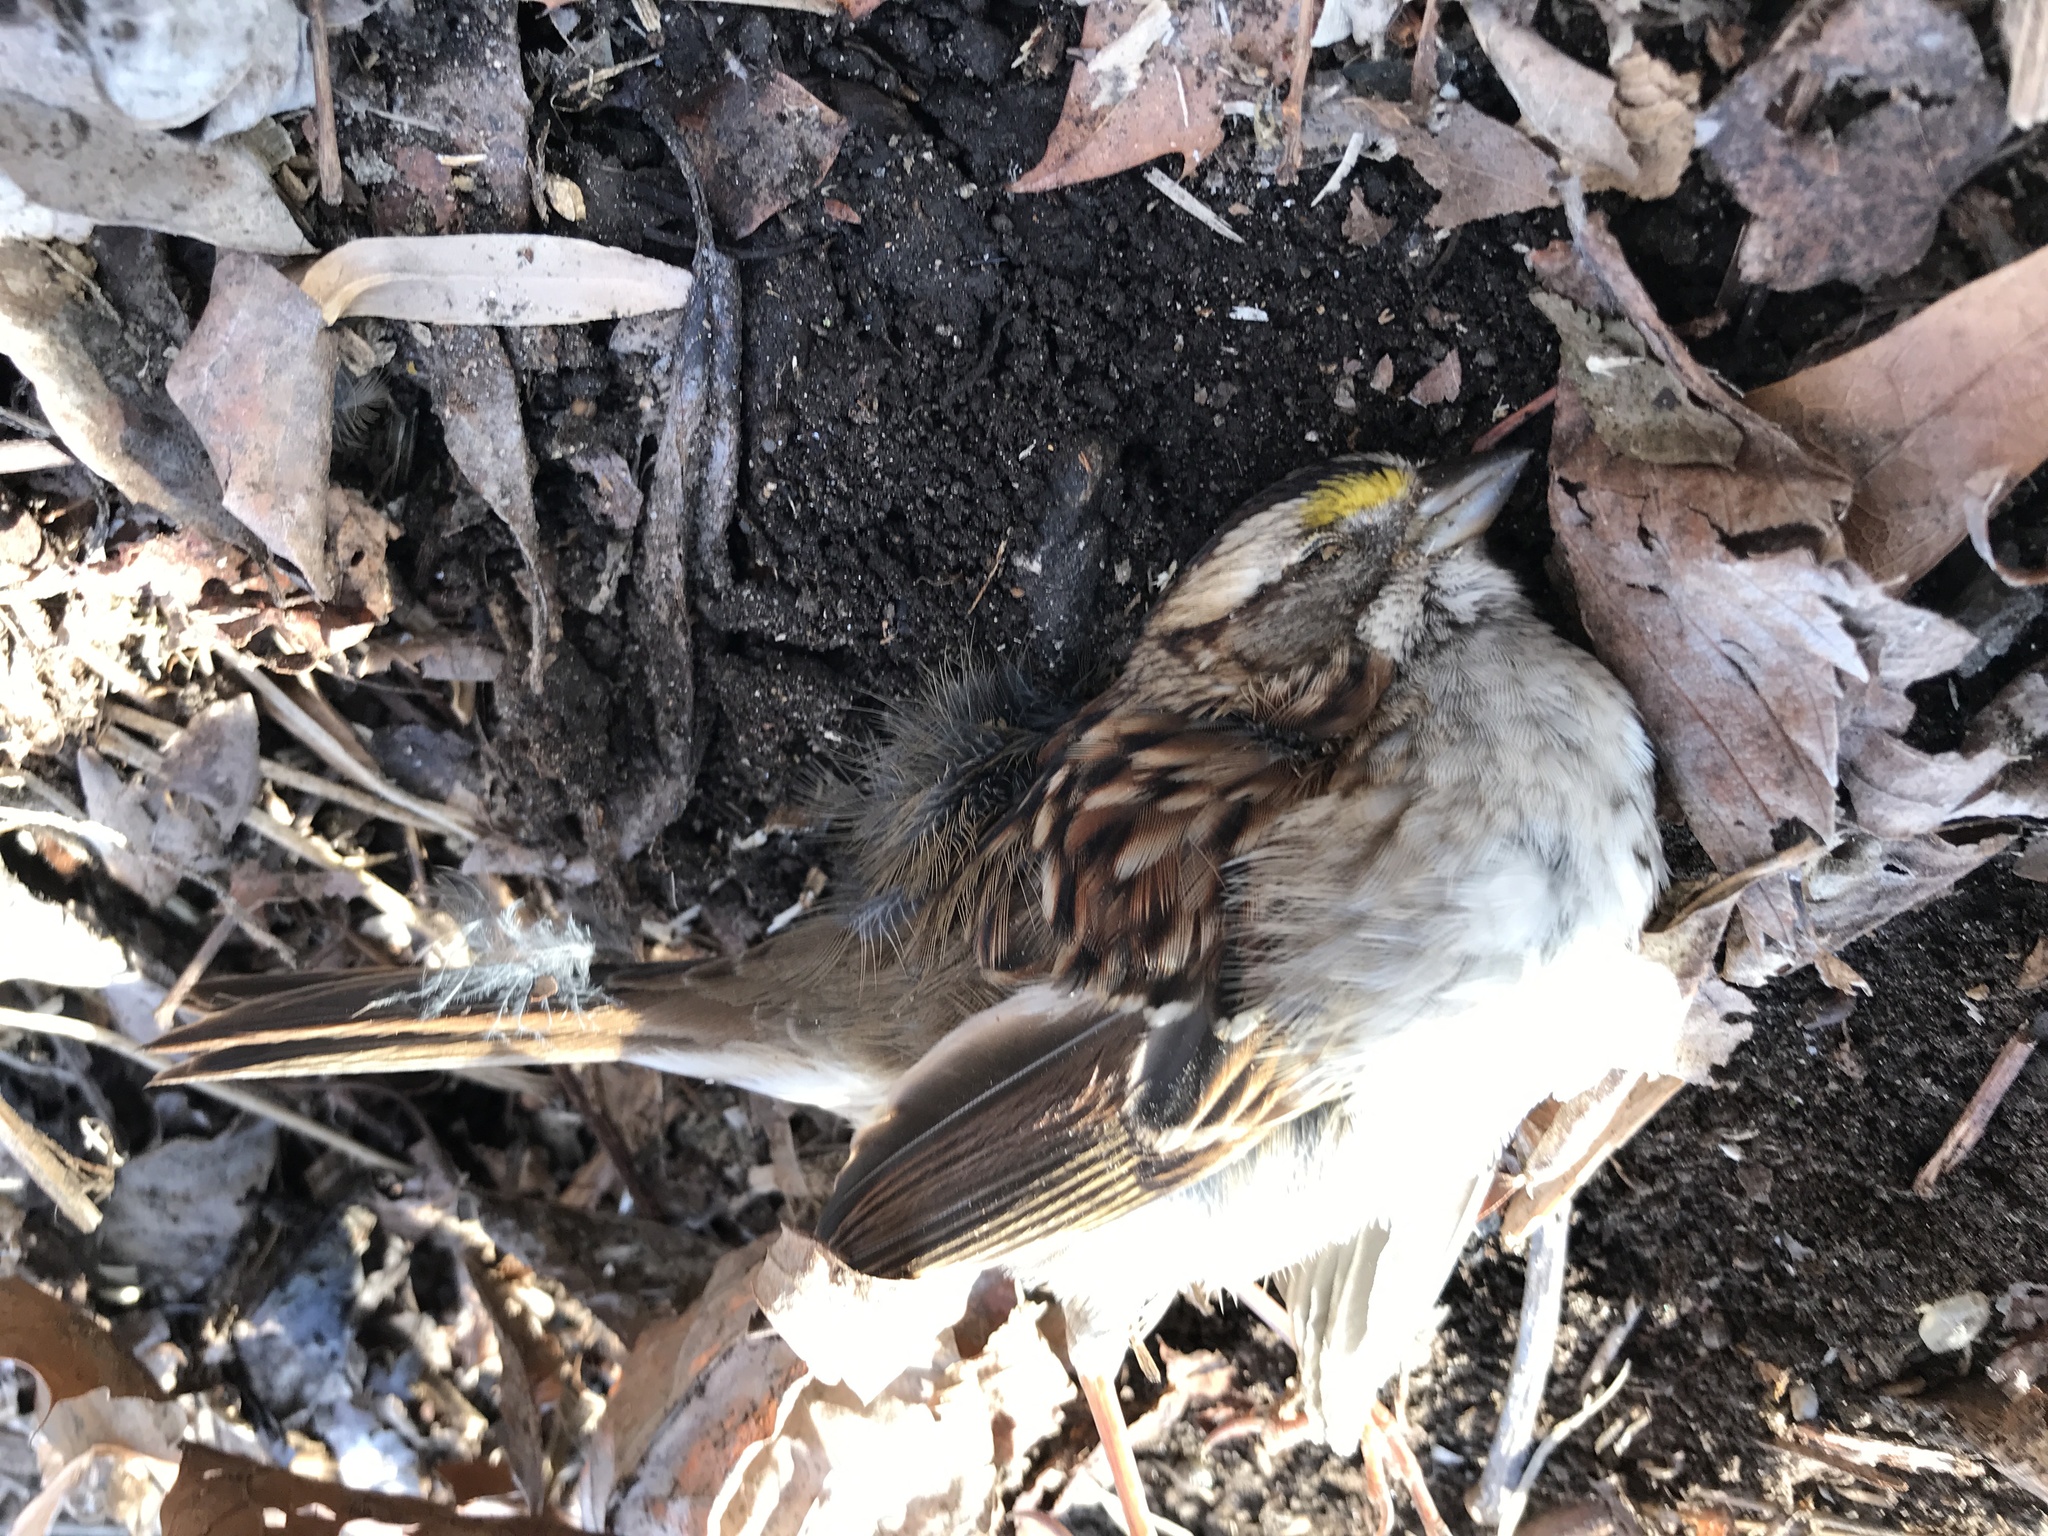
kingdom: Animalia
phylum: Chordata
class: Aves
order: Passeriformes
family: Passerellidae
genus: Zonotrichia
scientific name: Zonotrichia albicollis
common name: White-throated sparrow
